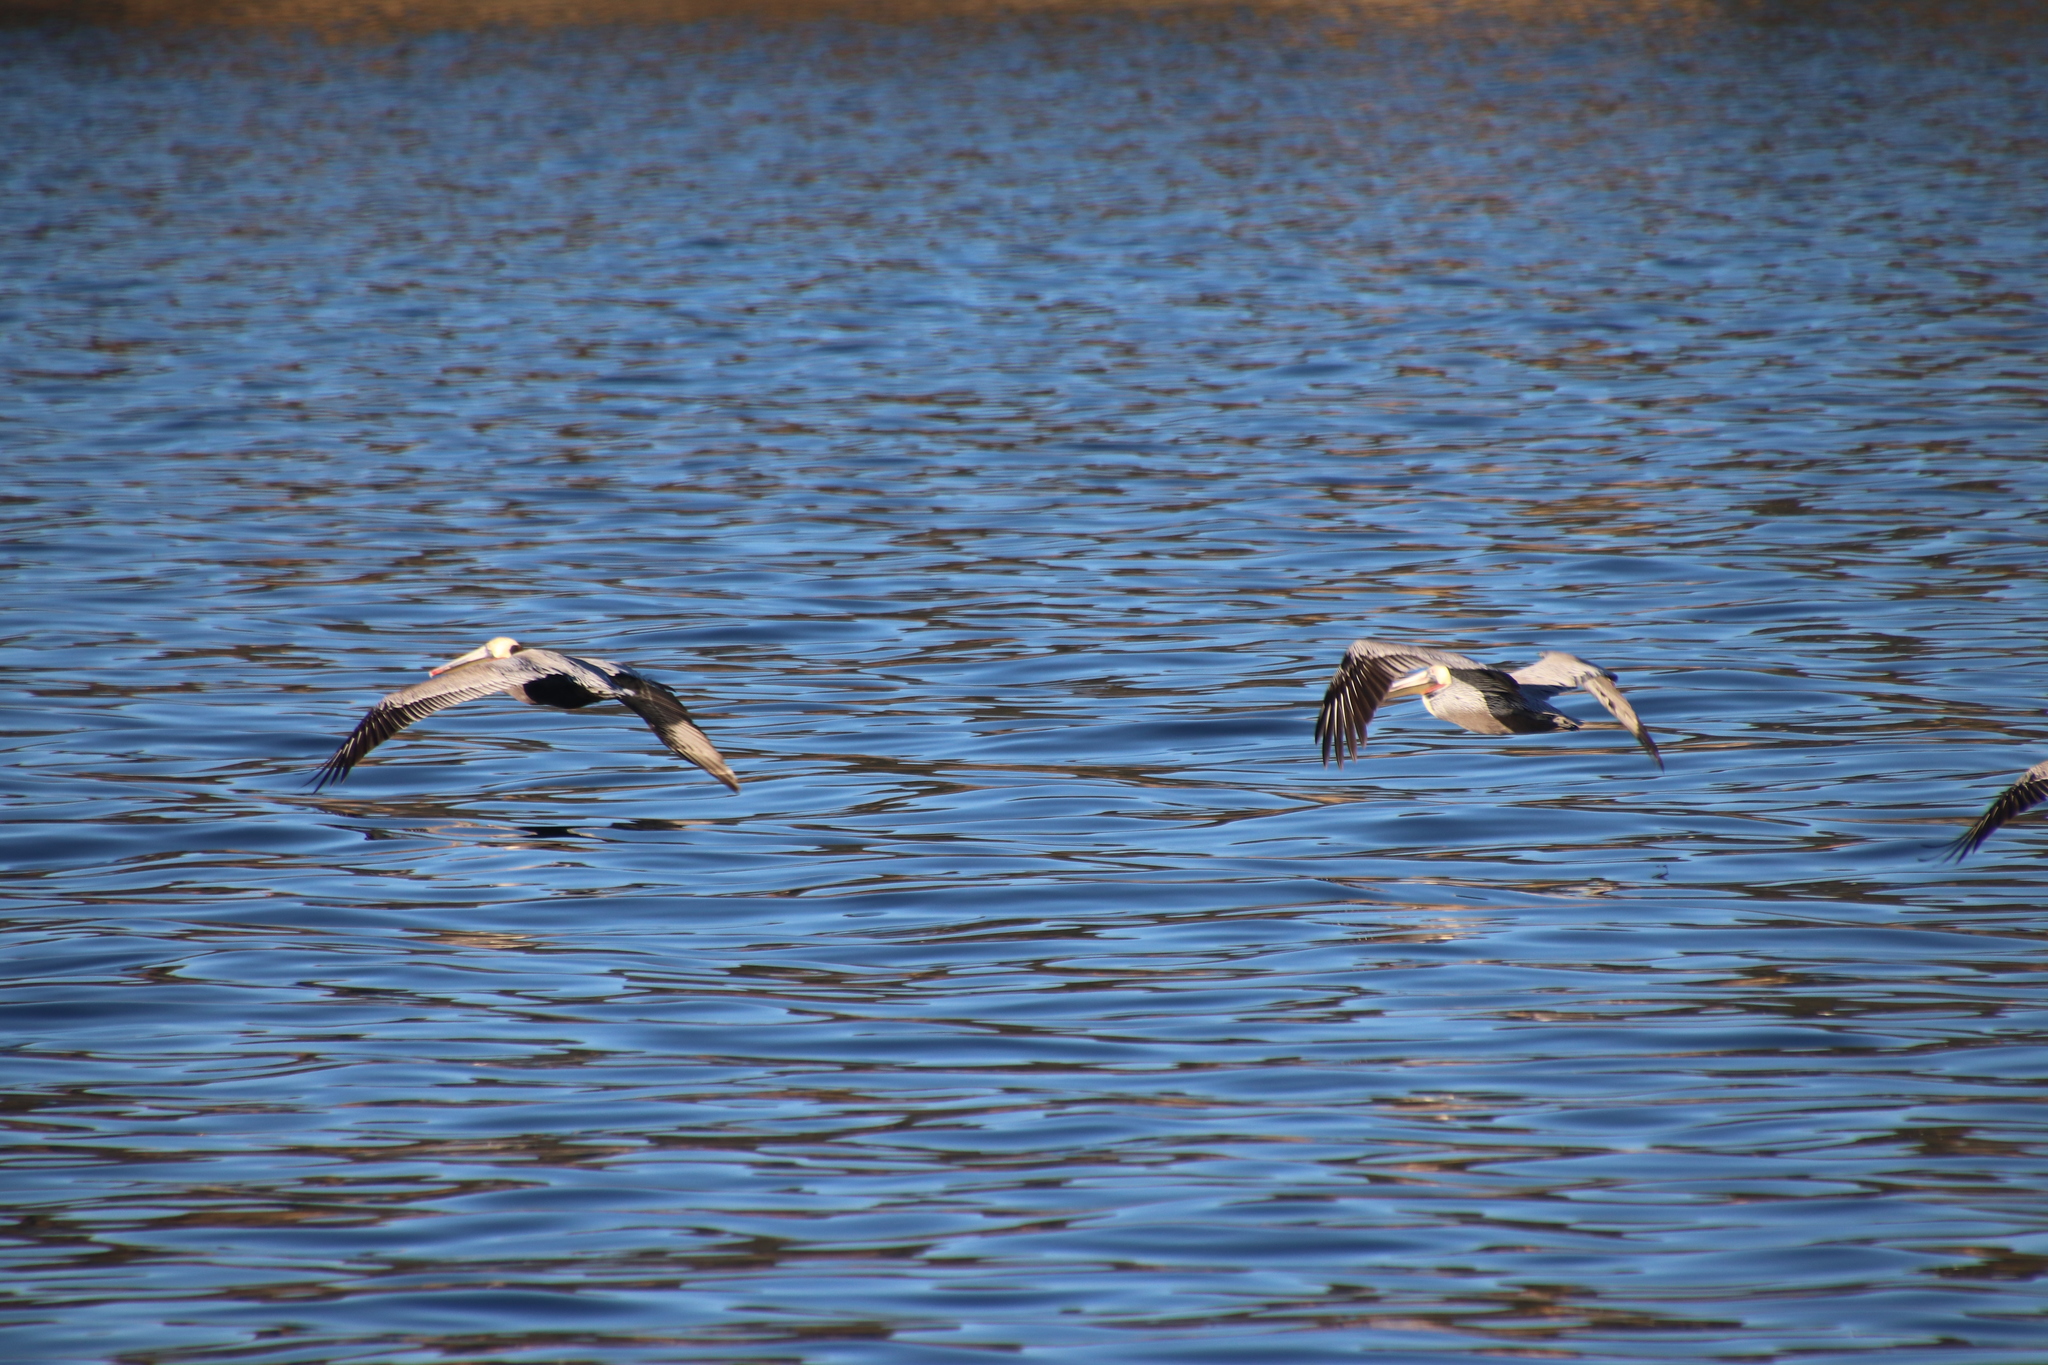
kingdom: Animalia
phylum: Chordata
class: Aves
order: Pelecaniformes
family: Pelecanidae
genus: Pelecanus
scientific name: Pelecanus occidentalis
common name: Brown pelican
